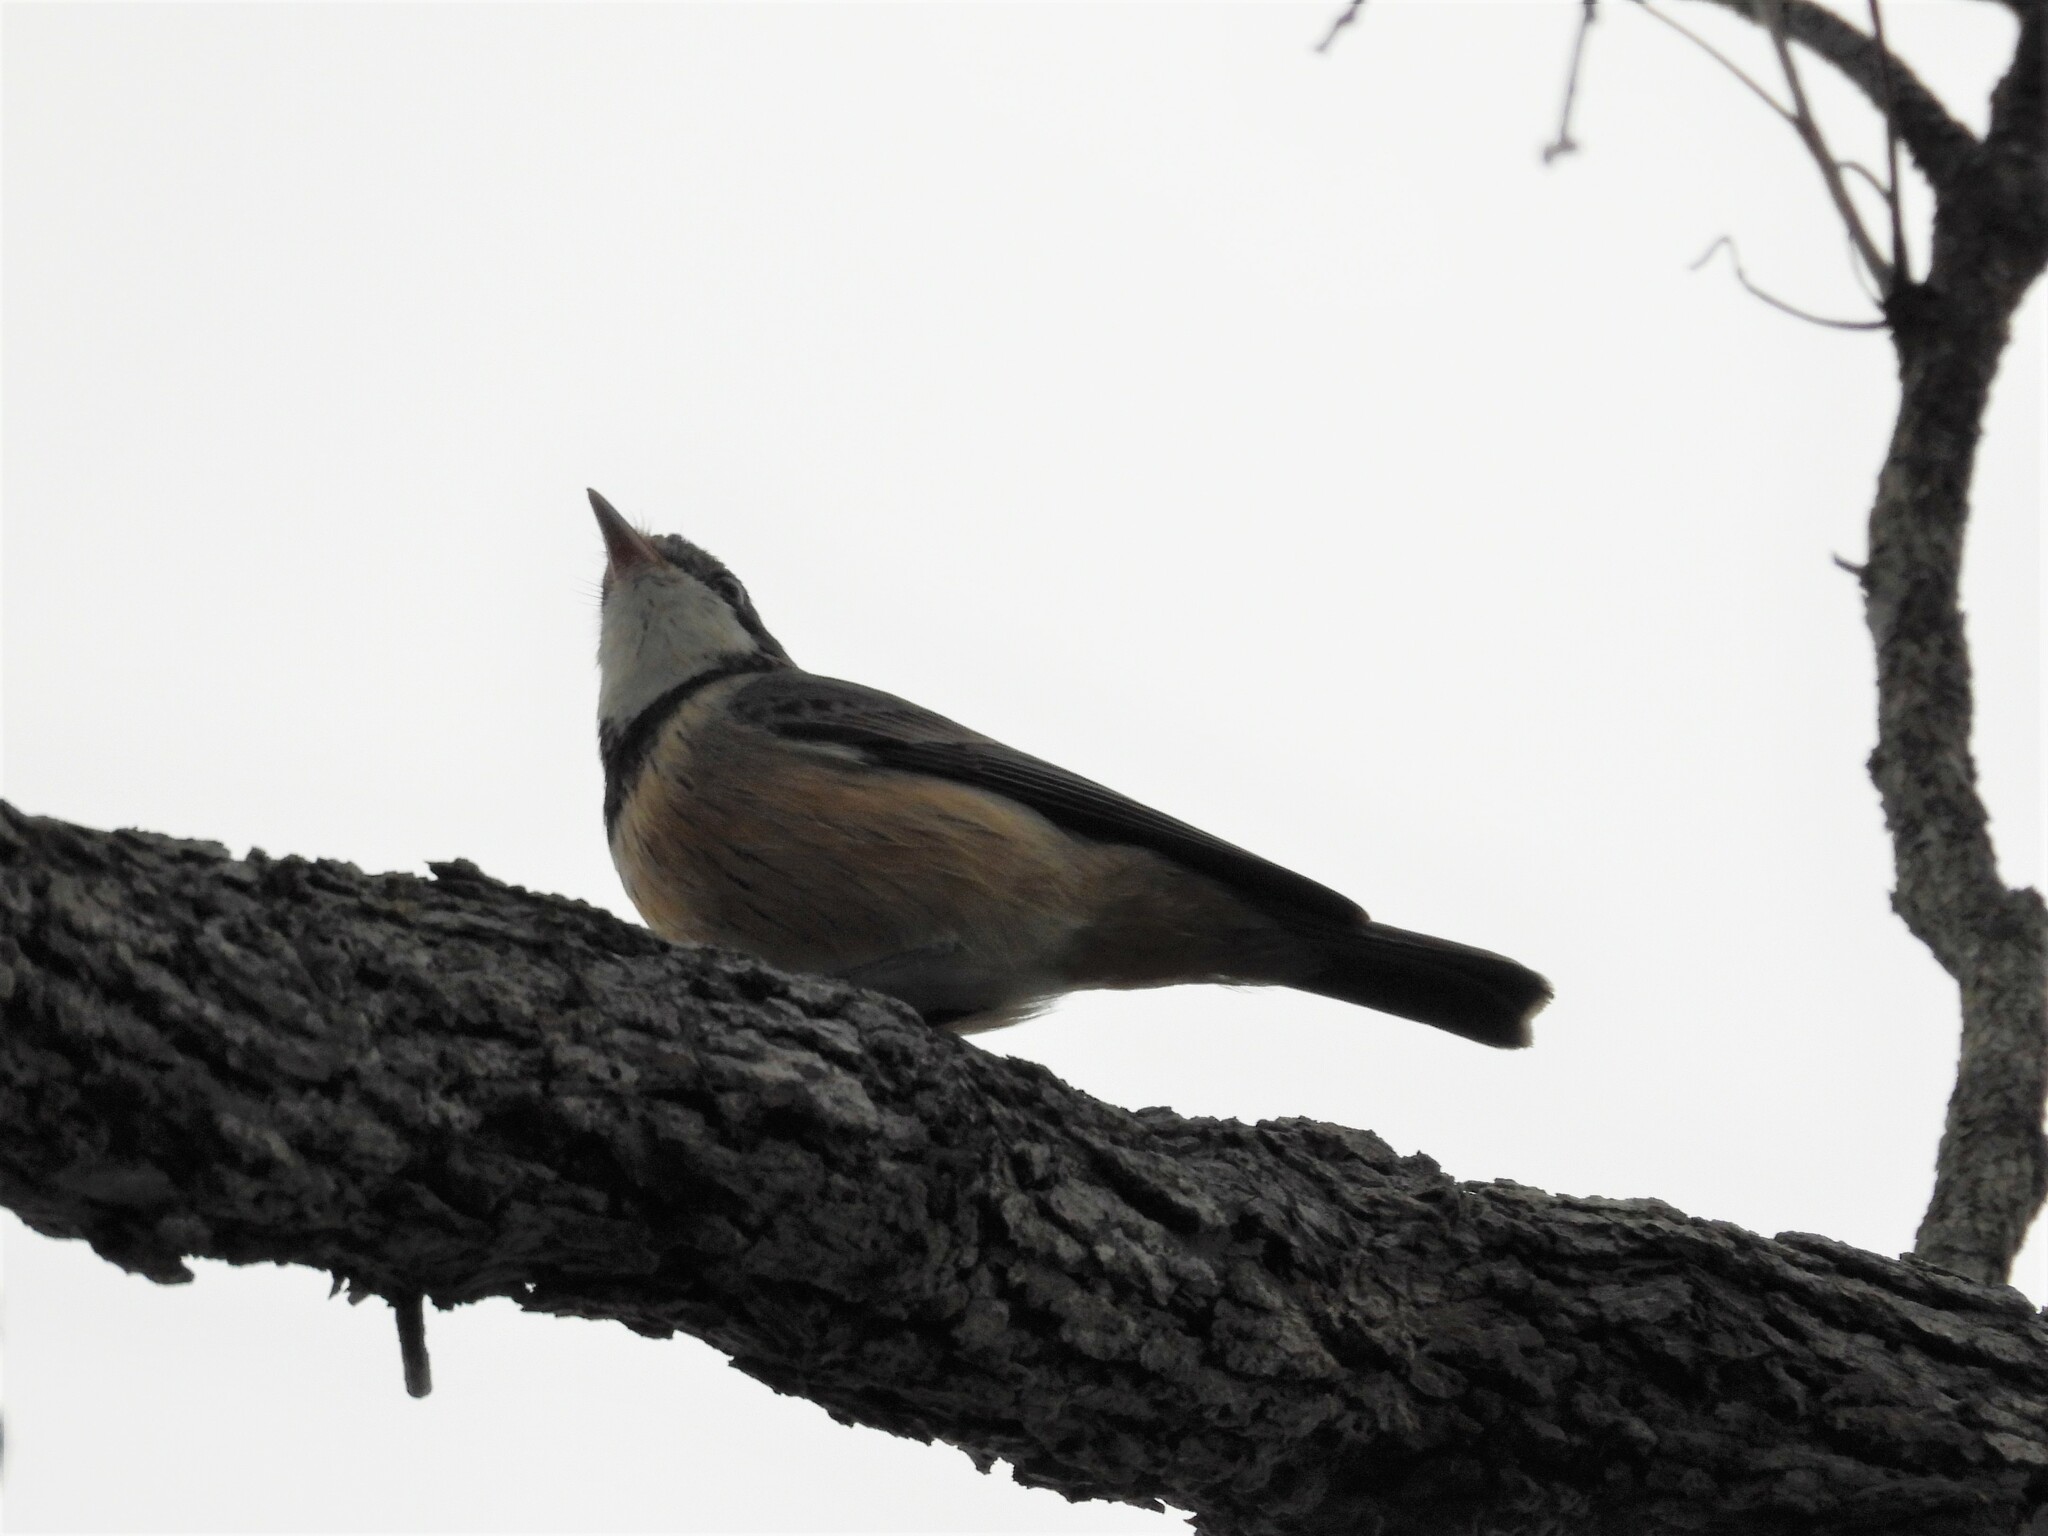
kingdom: Animalia
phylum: Chordata
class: Aves
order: Passeriformes
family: Pachycephalidae
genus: Pachycephala
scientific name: Pachycephala rufiventris
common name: Rufous whistler
